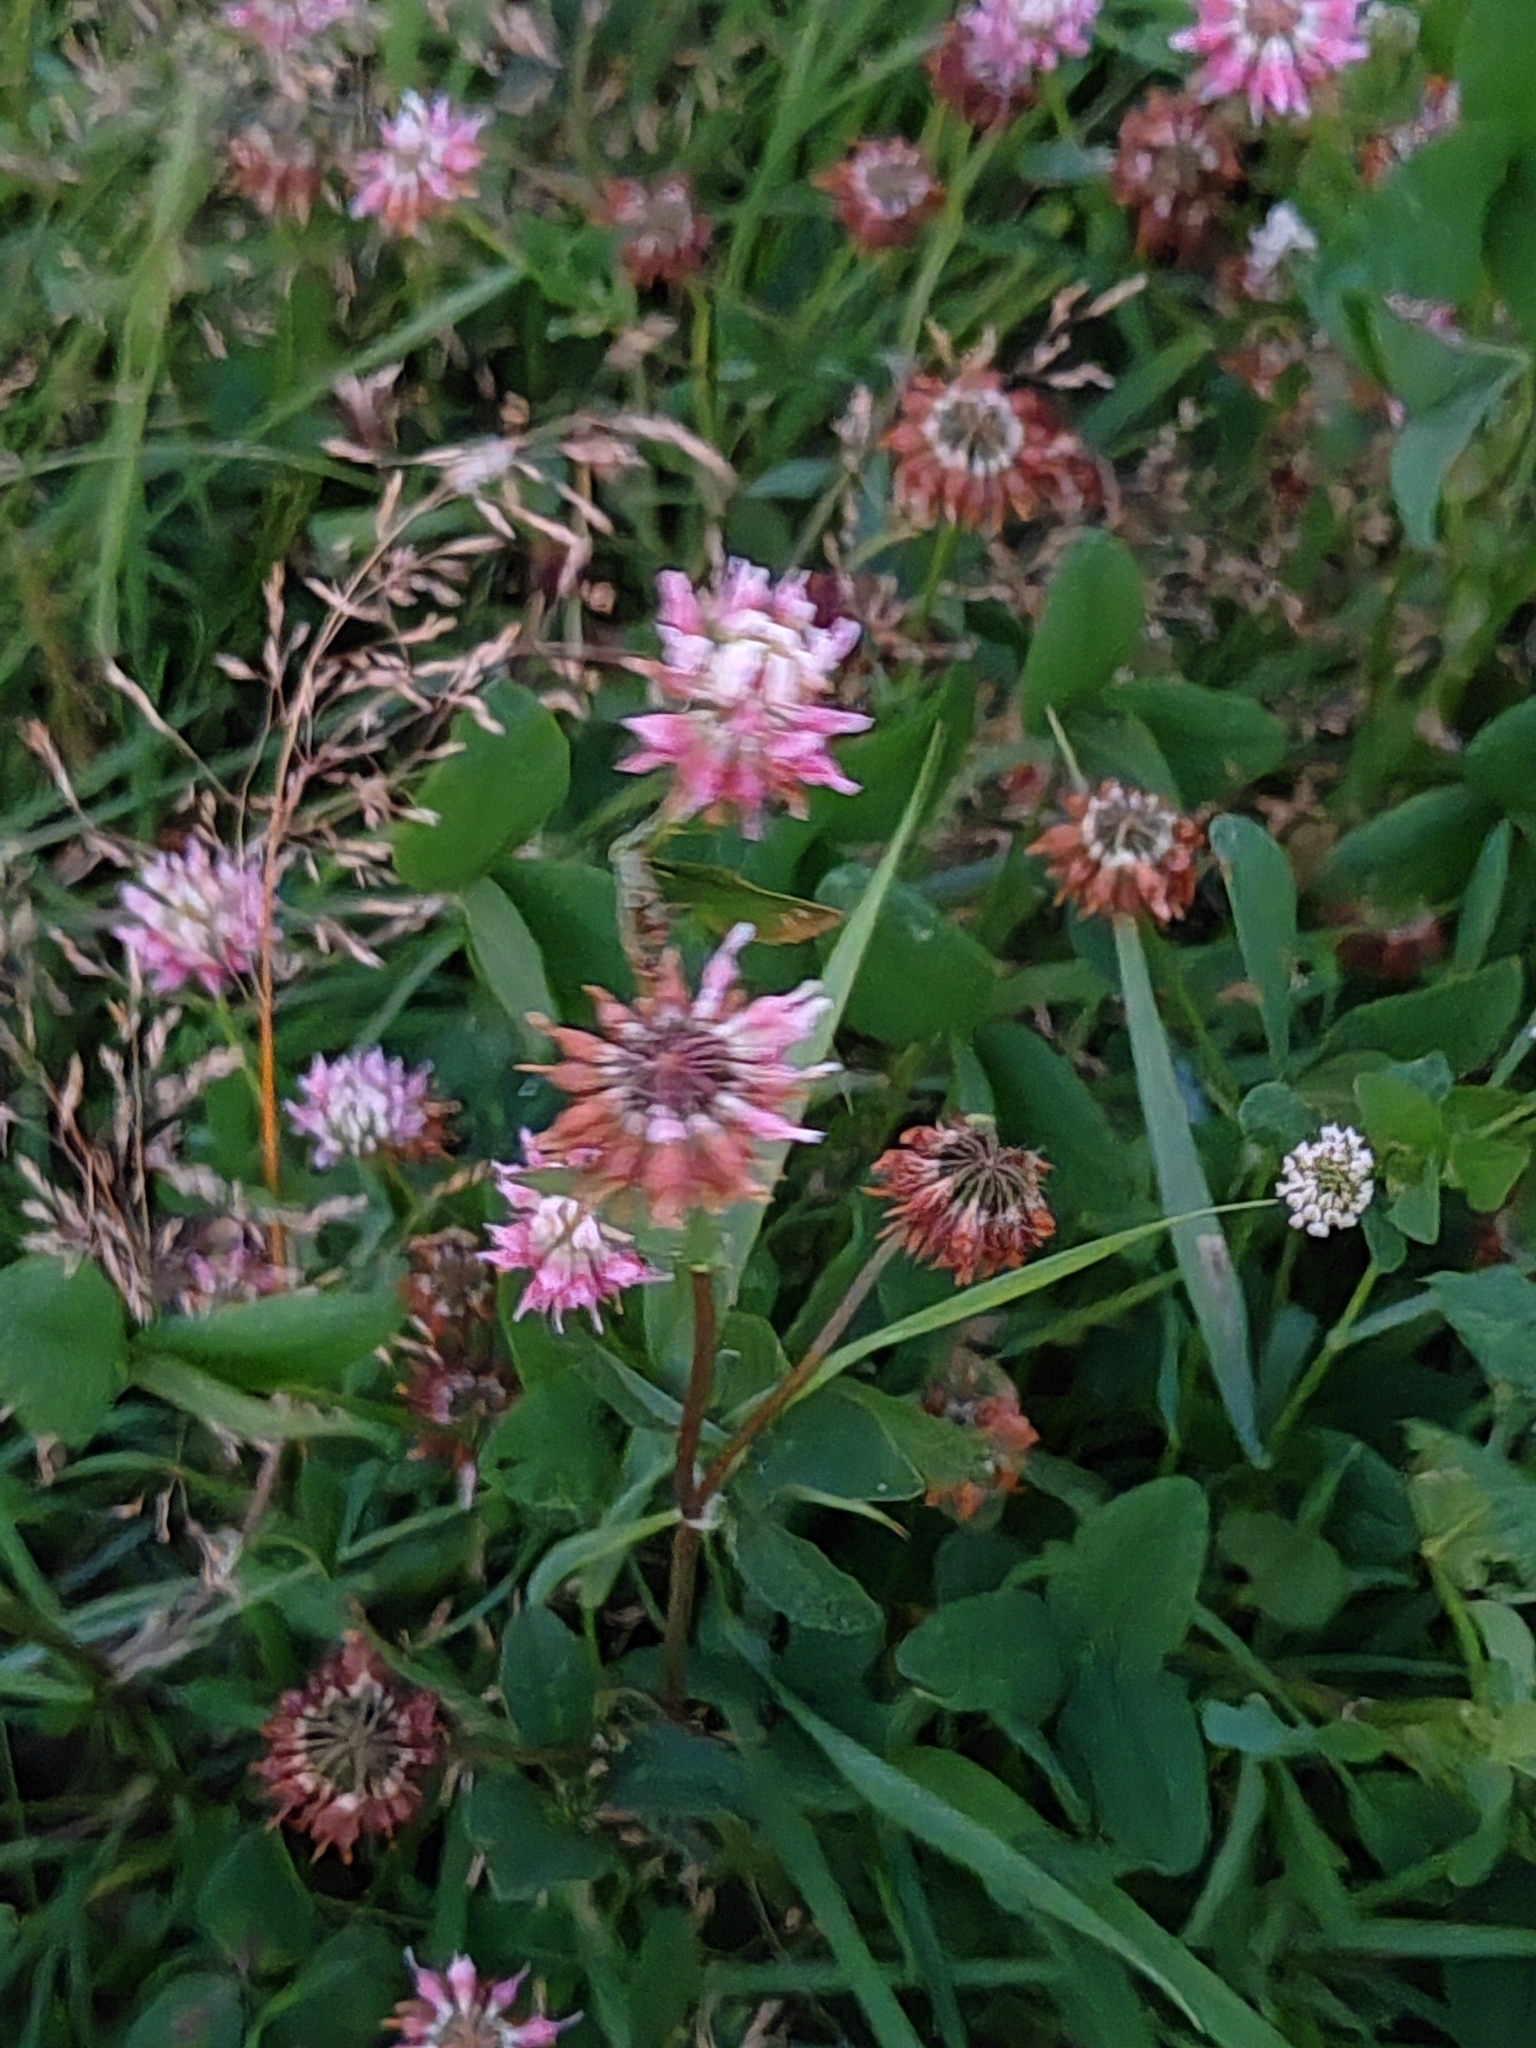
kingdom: Plantae
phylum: Tracheophyta
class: Magnoliopsida
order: Fabales
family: Fabaceae
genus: Trifolium
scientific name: Trifolium hybridum
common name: Alsike clover
